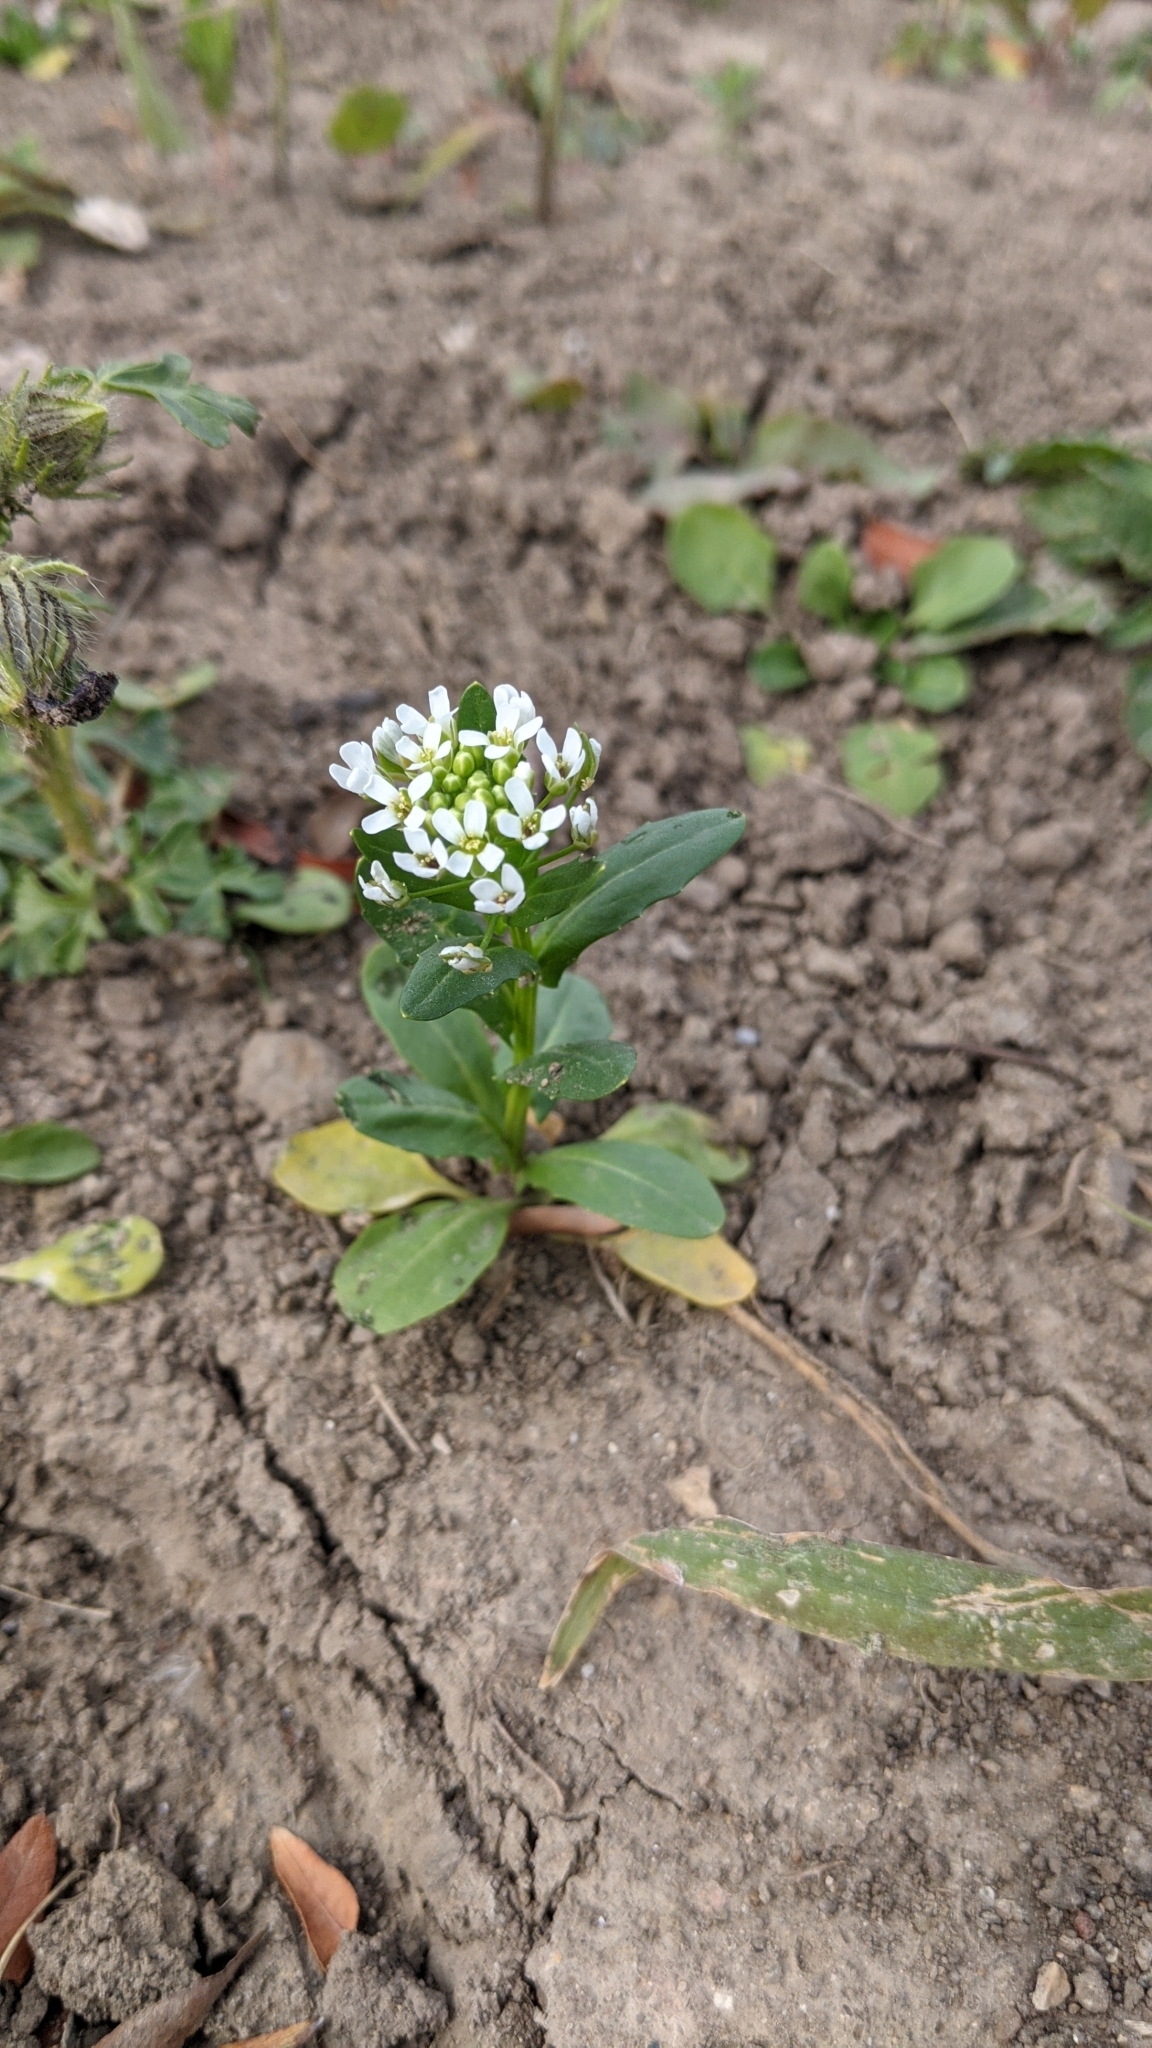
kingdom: Plantae
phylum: Tracheophyta
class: Magnoliopsida
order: Brassicales
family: Brassicaceae
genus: Thlaspi
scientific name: Thlaspi arvense
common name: Field pennycress
